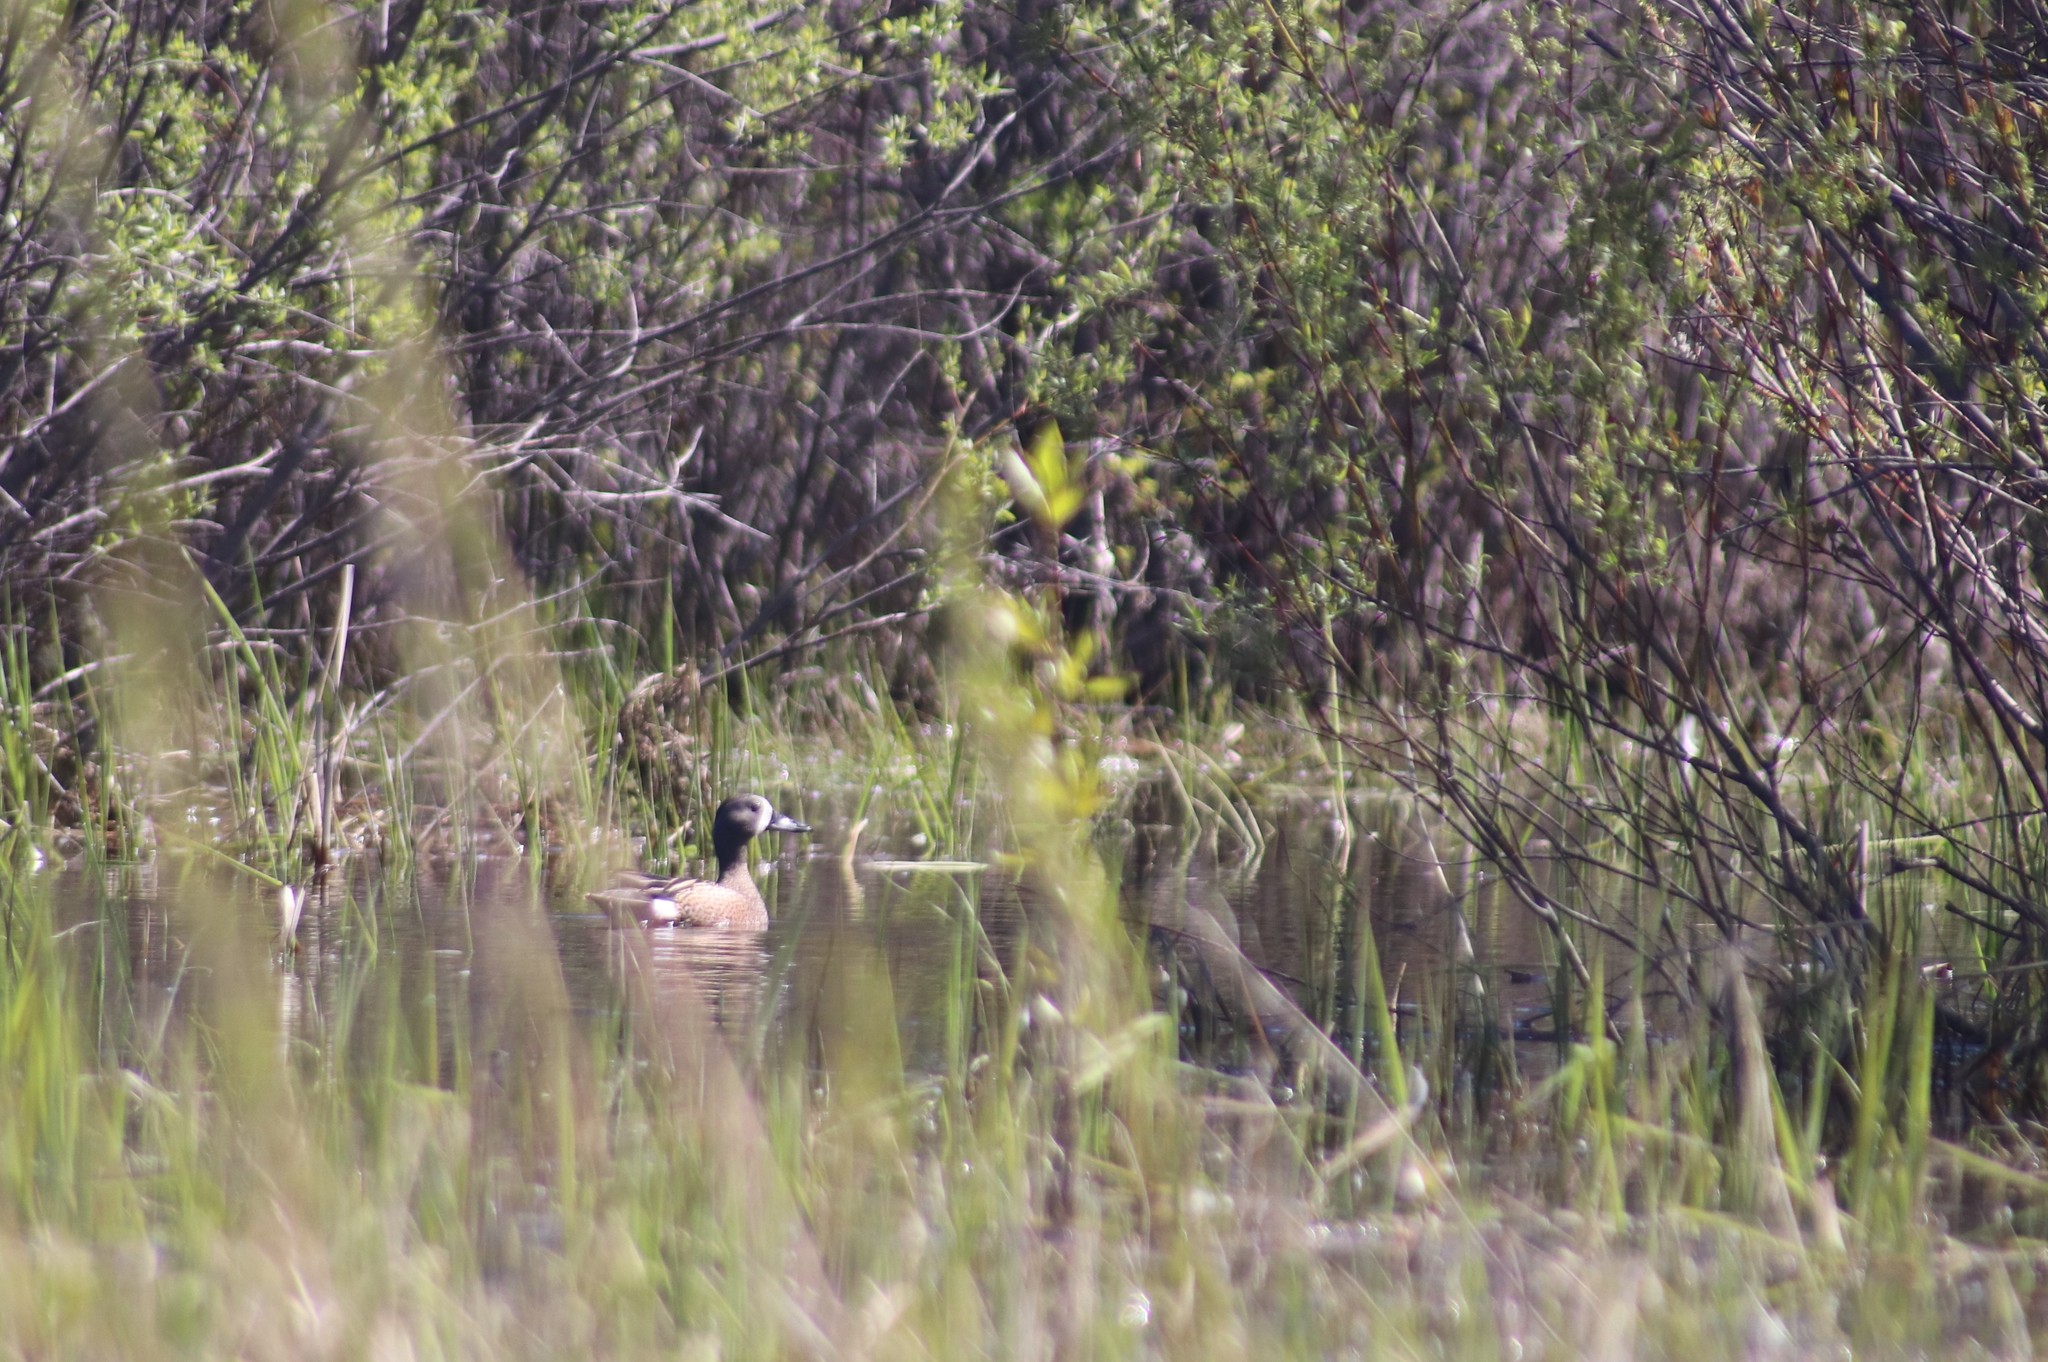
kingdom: Animalia
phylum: Chordata
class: Aves
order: Anseriformes
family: Anatidae
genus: Spatula
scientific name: Spatula discors
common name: Blue-winged teal
